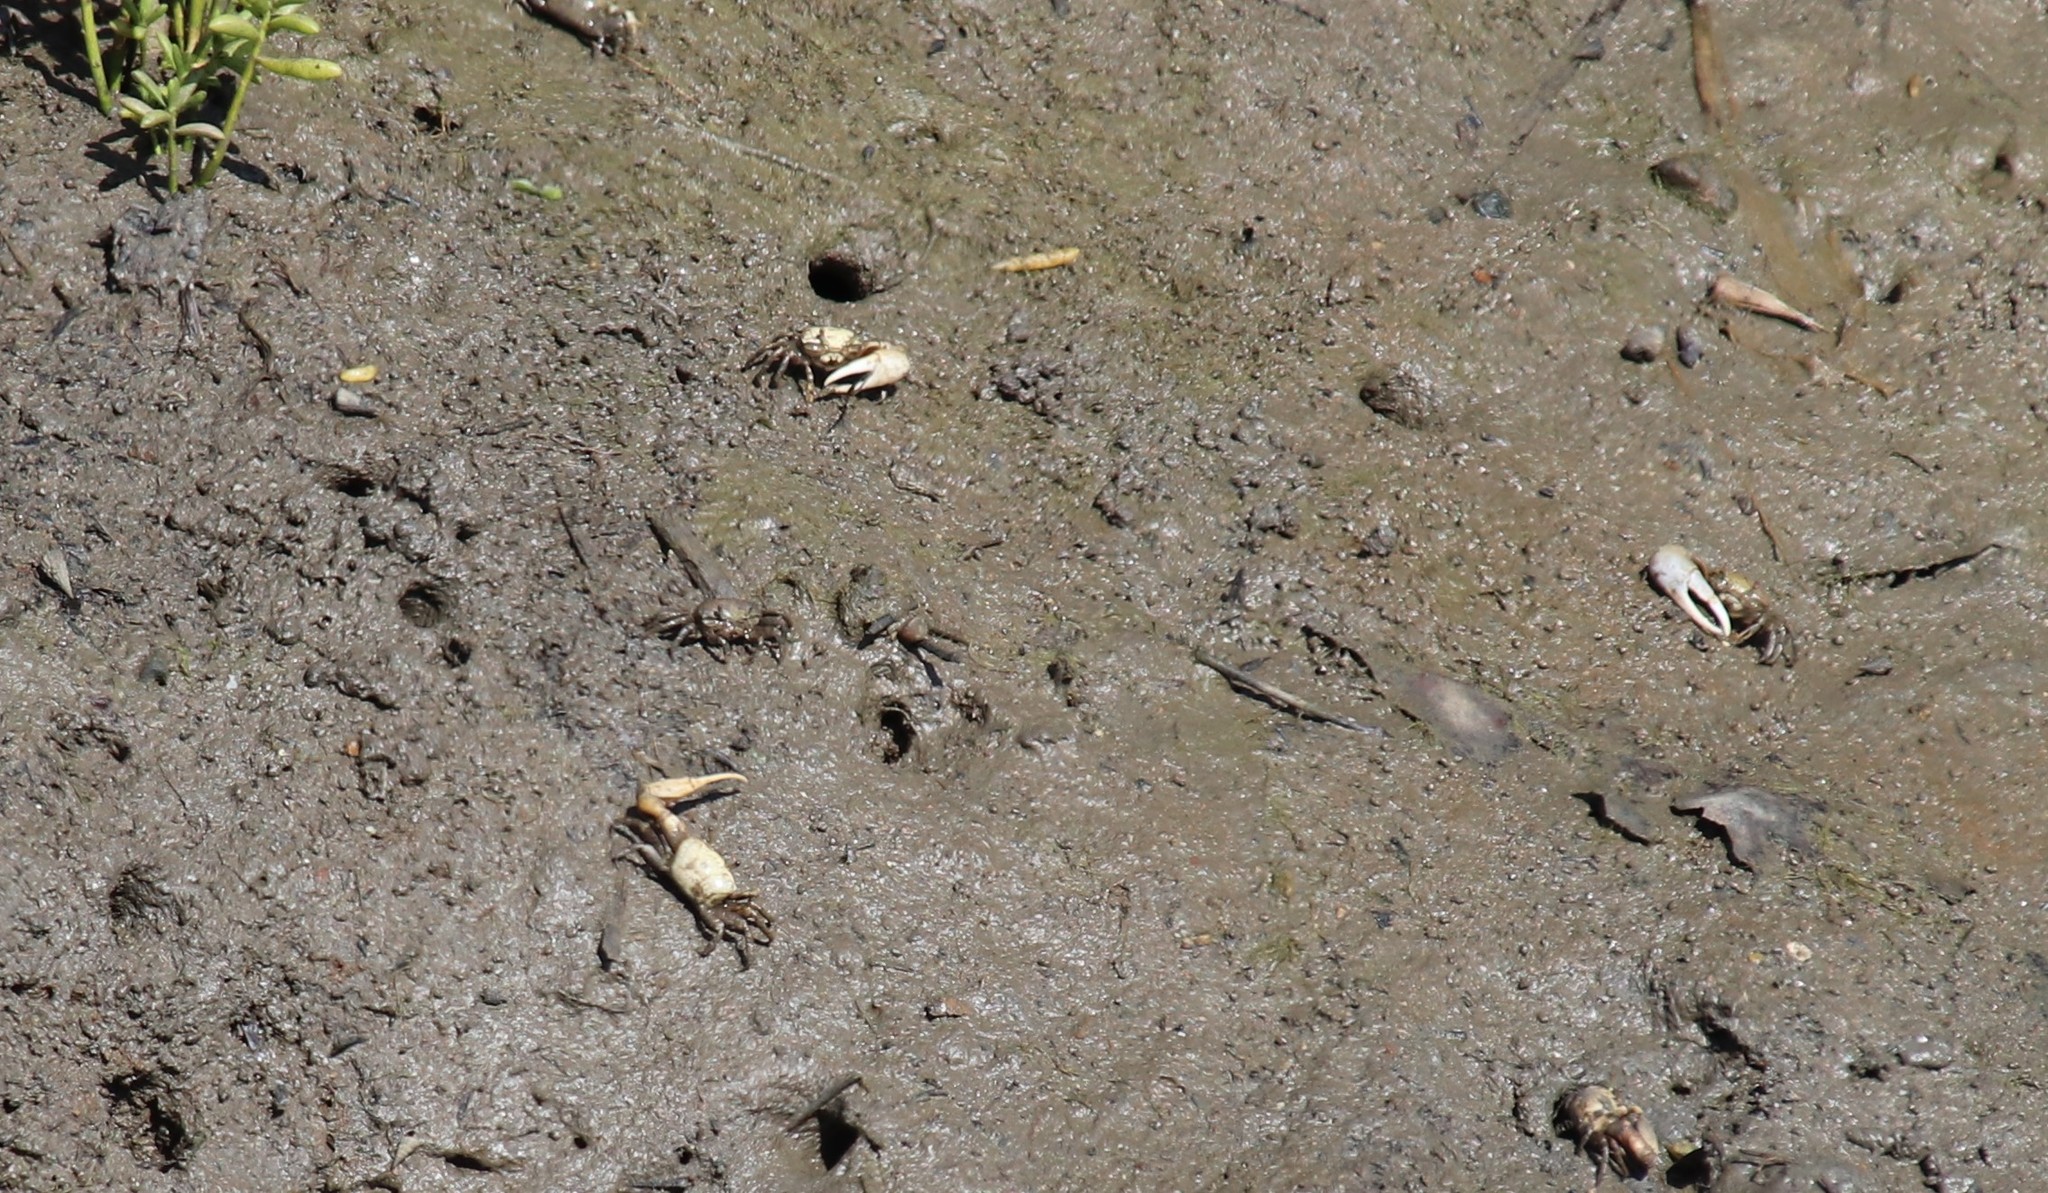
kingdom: Animalia
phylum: Arthropoda
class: Malacostraca
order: Decapoda
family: Ocypodidae
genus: Leptuca
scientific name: Leptuca crenulata
